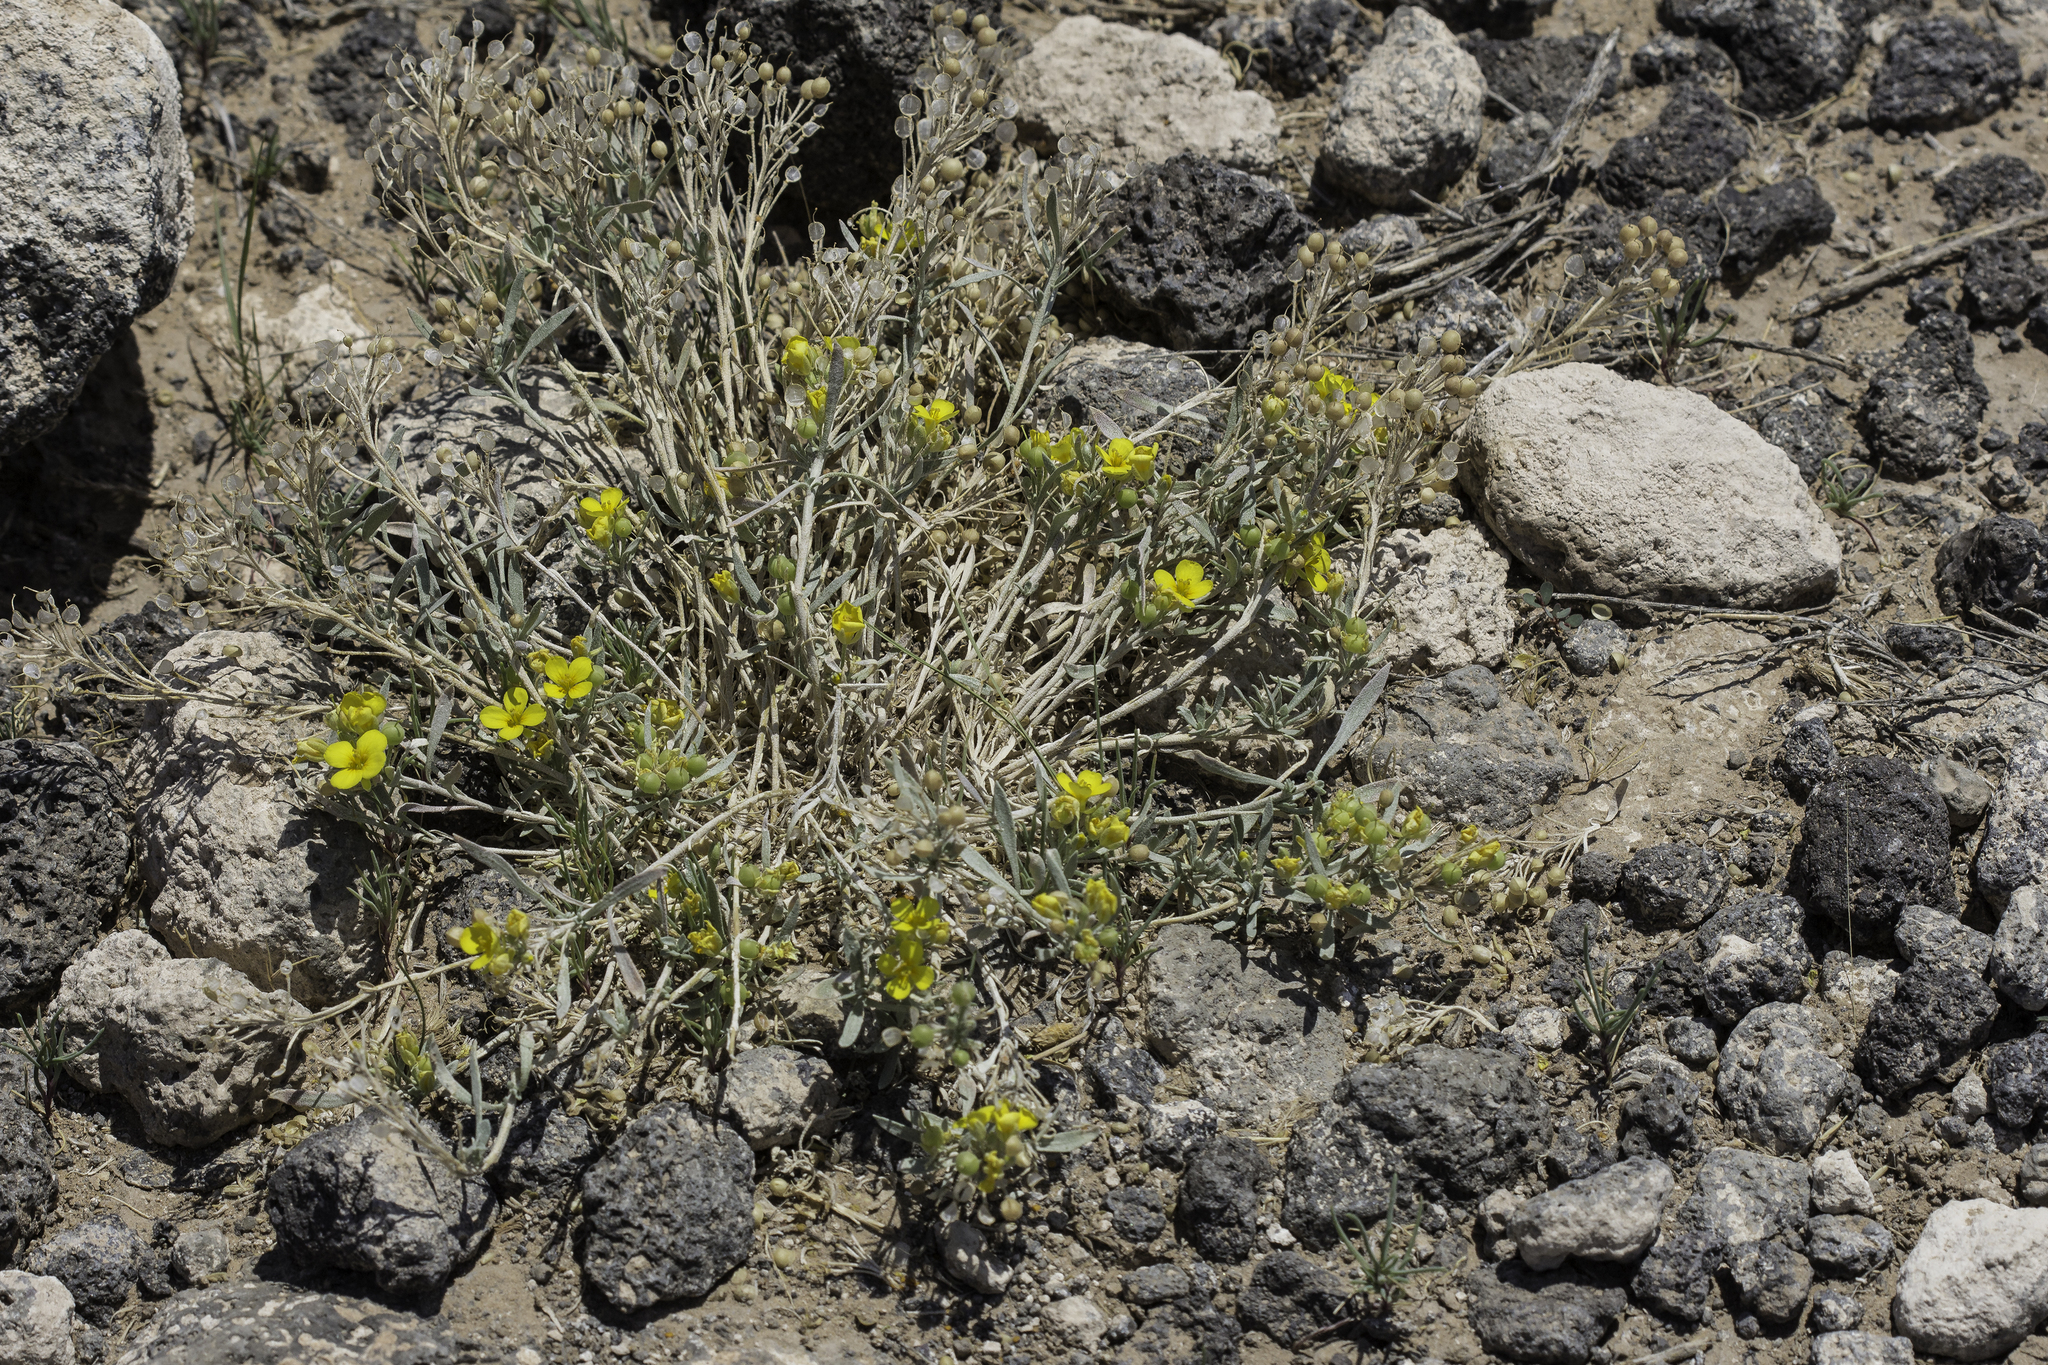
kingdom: Plantae
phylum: Tracheophyta
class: Magnoliopsida
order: Brassicales
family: Brassicaceae
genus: Physaria
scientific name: Physaria fendleri
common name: Fendler's bladderpod
